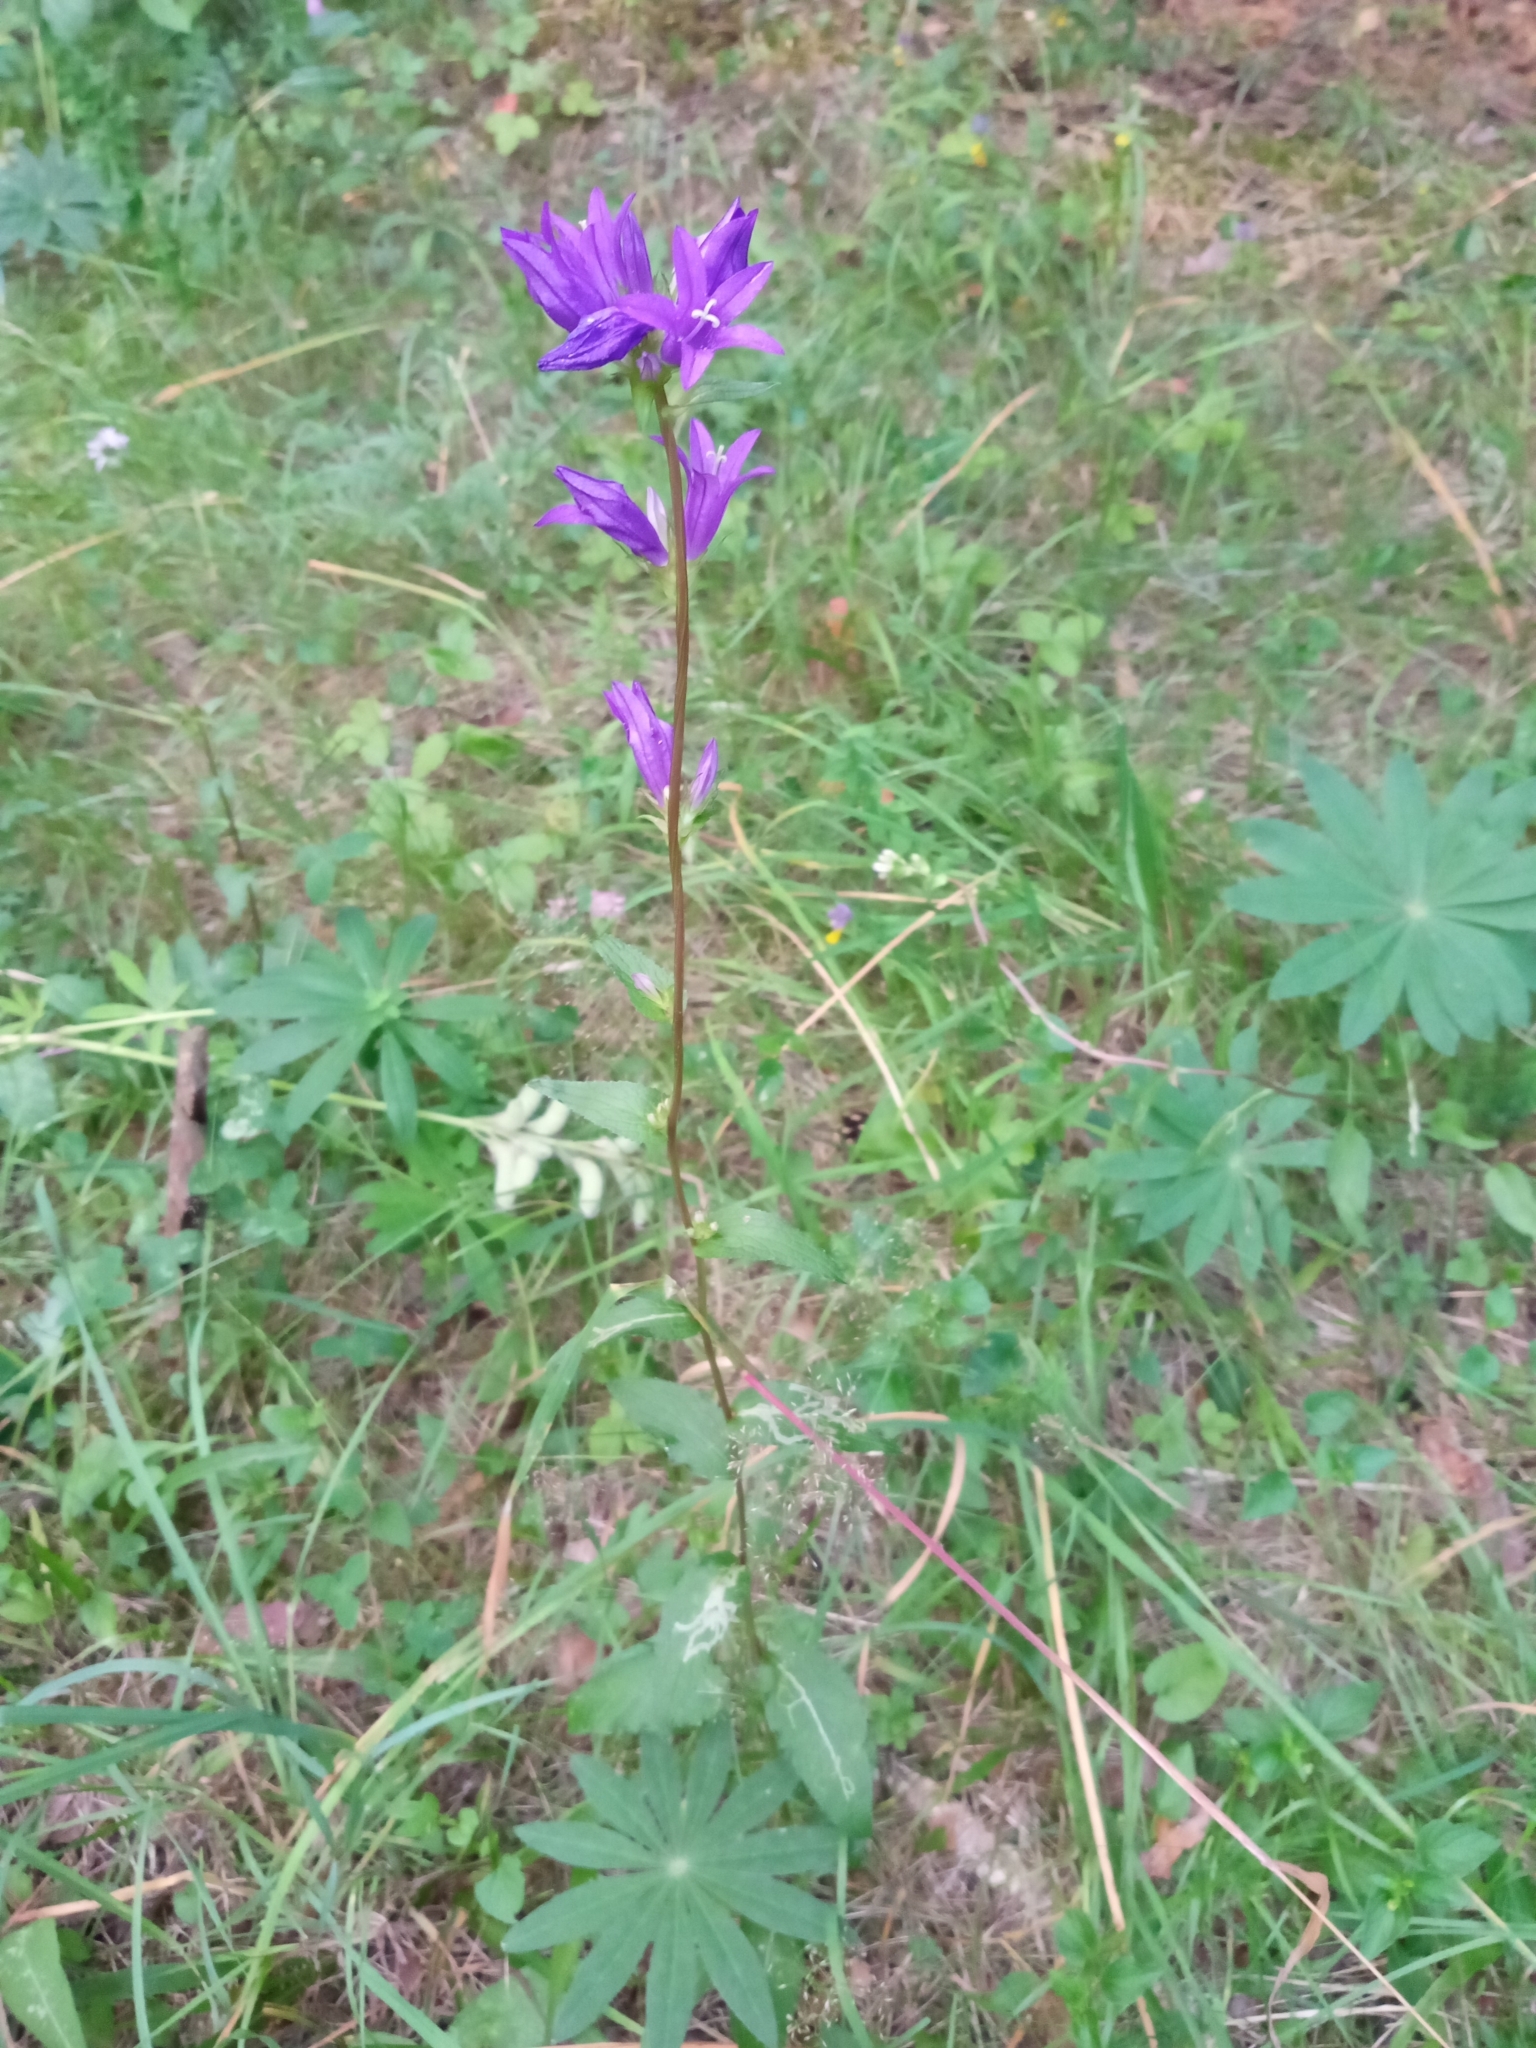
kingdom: Plantae
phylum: Tracheophyta
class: Magnoliopsida
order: Asterales
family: Campanulaceae
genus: Campanula
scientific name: Campanula glomerata
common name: Clustered bellflower
